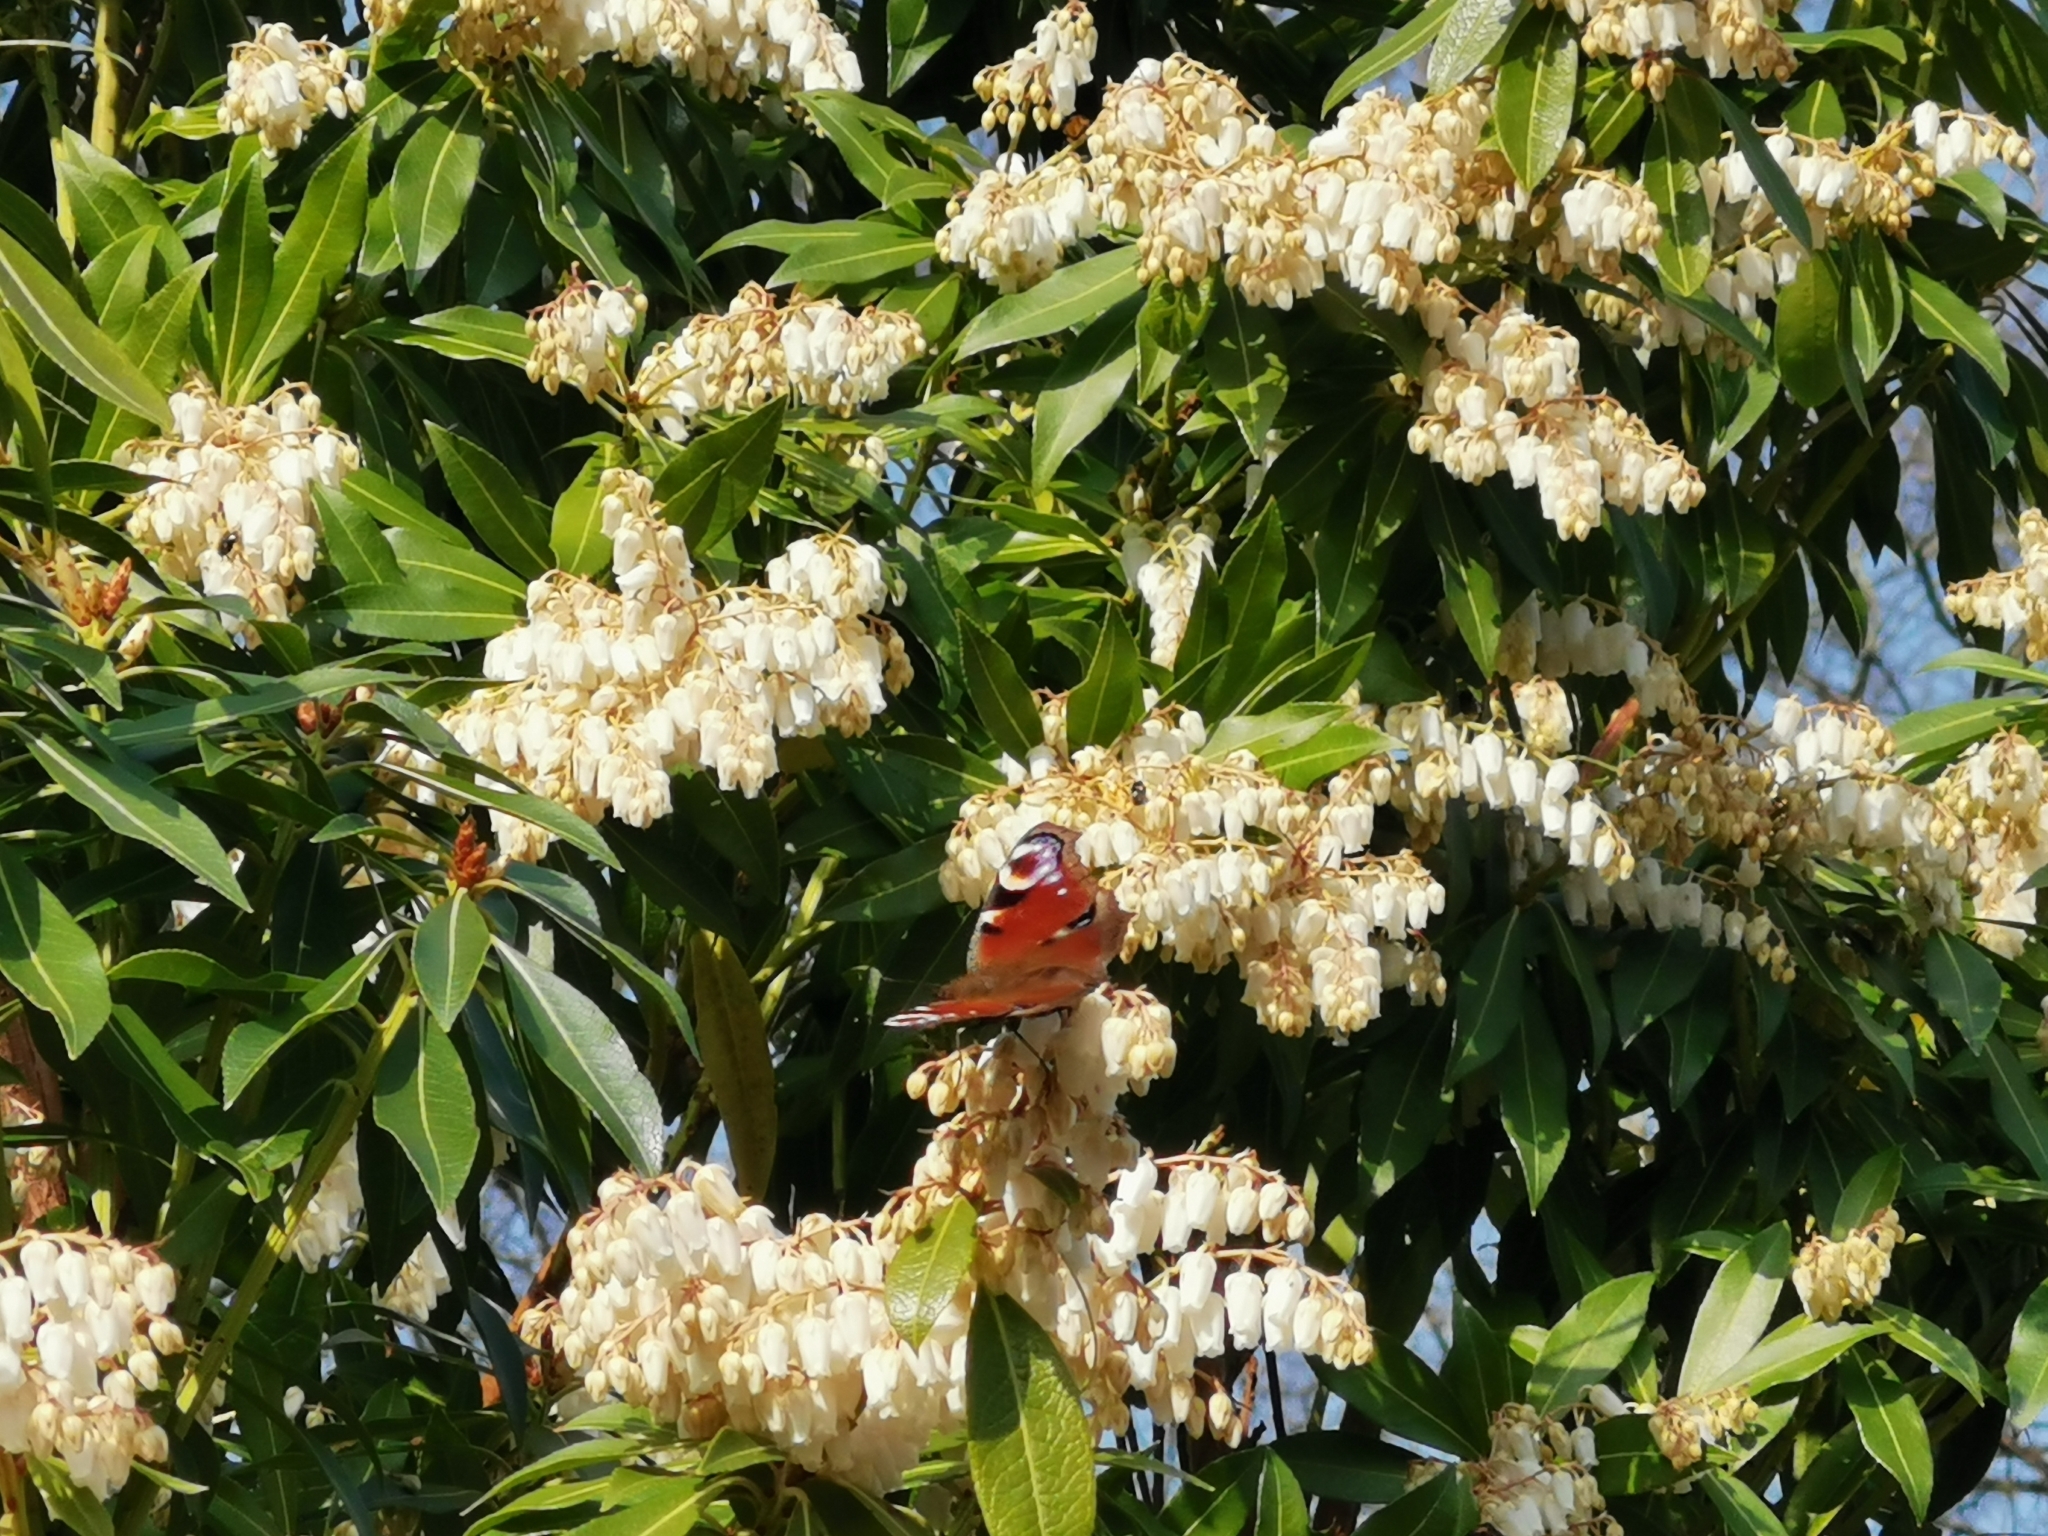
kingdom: Animalia
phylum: Arthropoda
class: Insecta
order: Lepidoptera
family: Nymphalidae
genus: Aglais
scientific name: Aglais io
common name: Peacock
